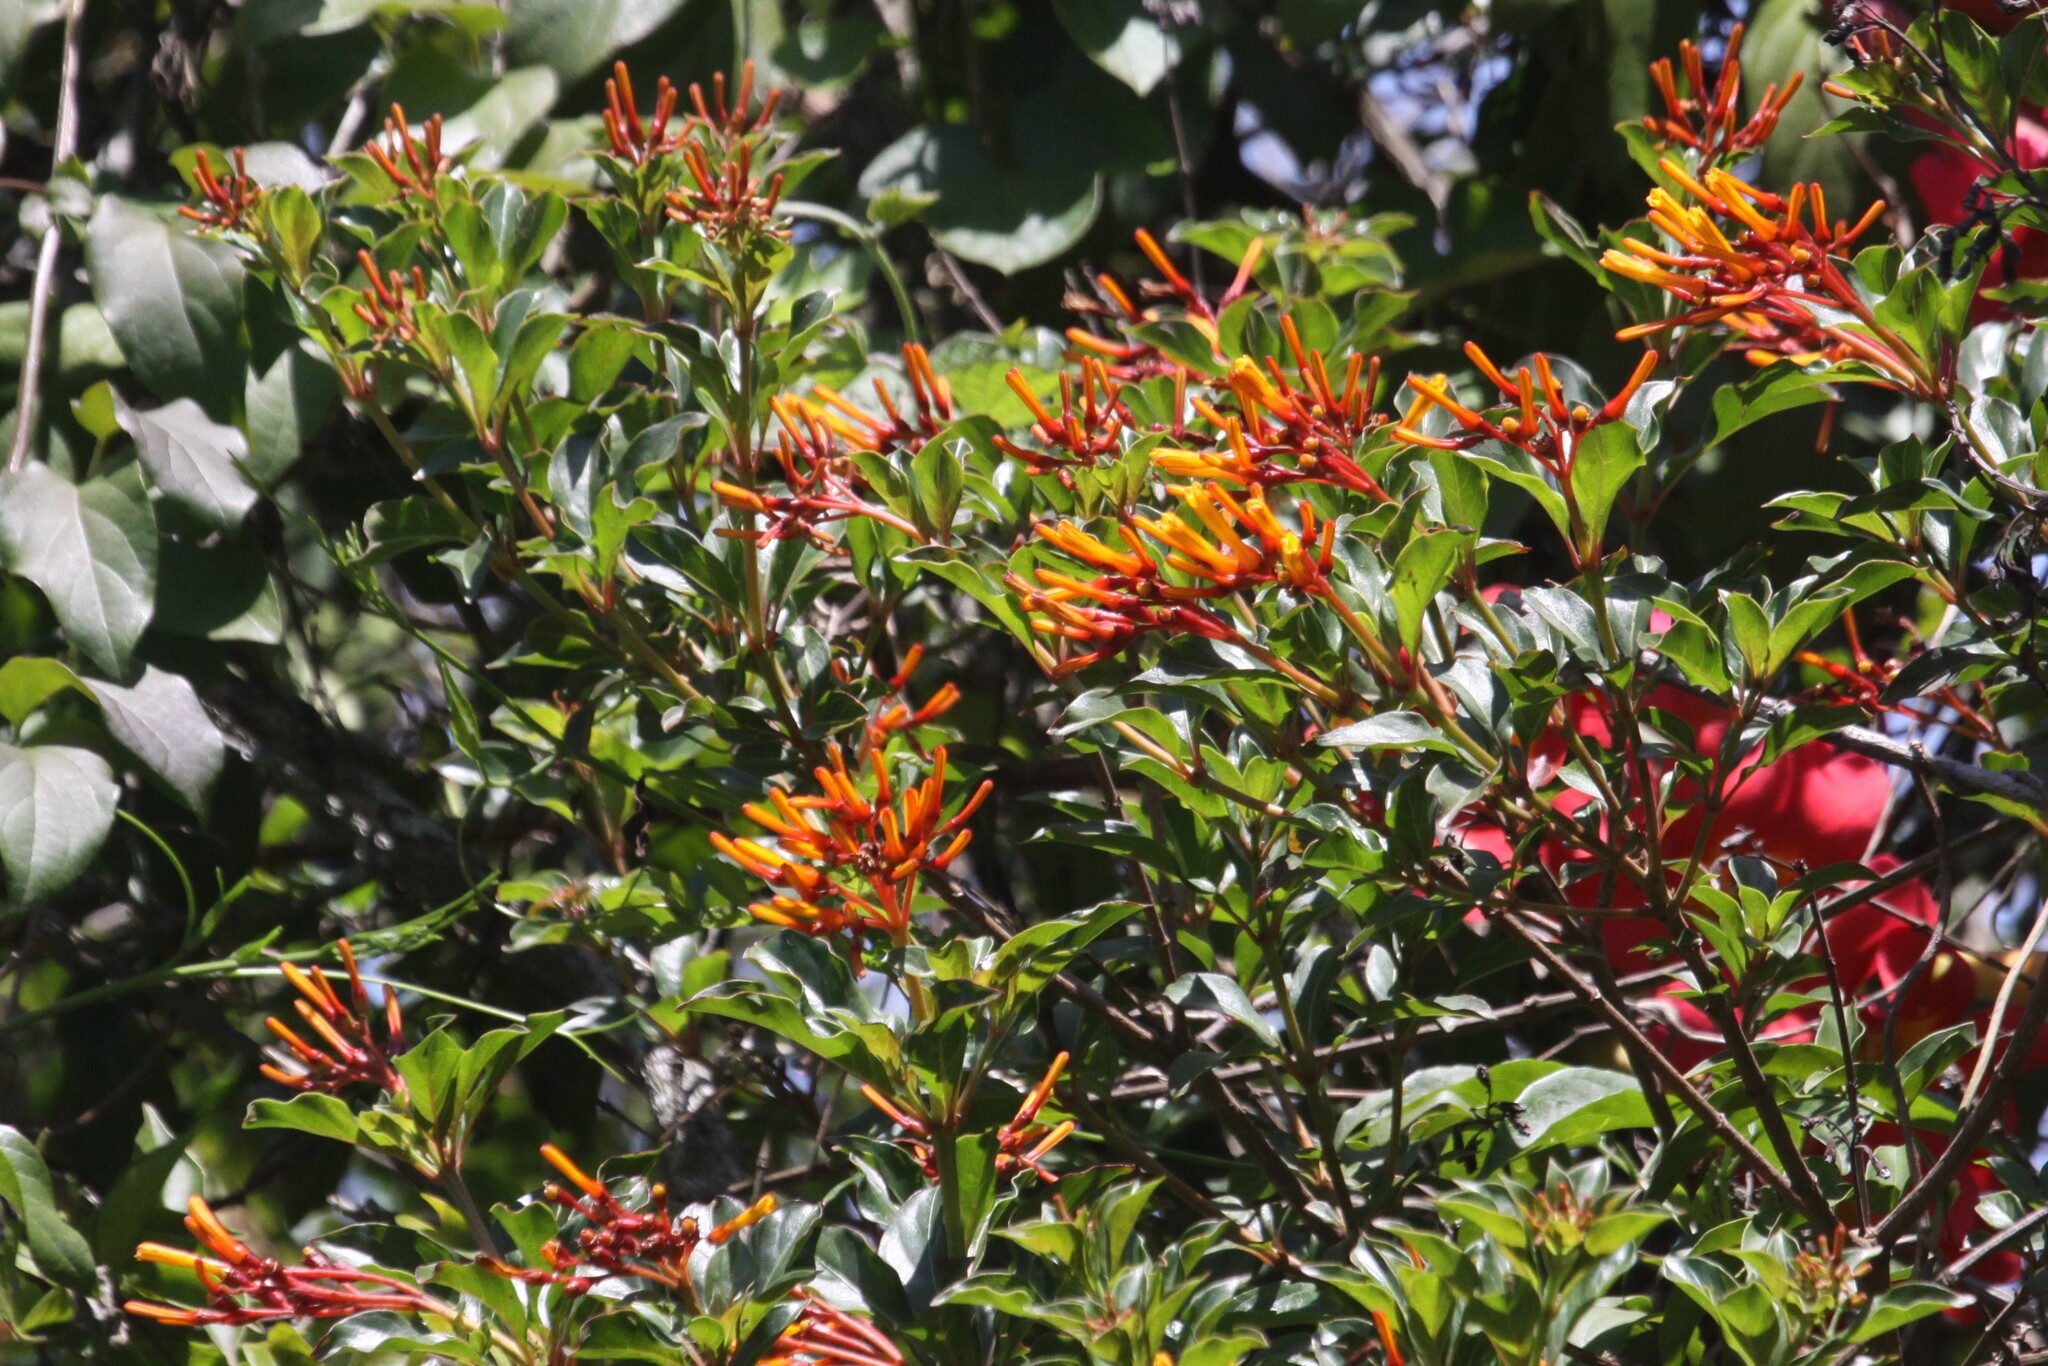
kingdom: Plantae
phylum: Tracheophyta
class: Magnoliopsida
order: Gentianales
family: Rubiaceae
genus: Hamelia
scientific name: Hamelia patens
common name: Redhead
